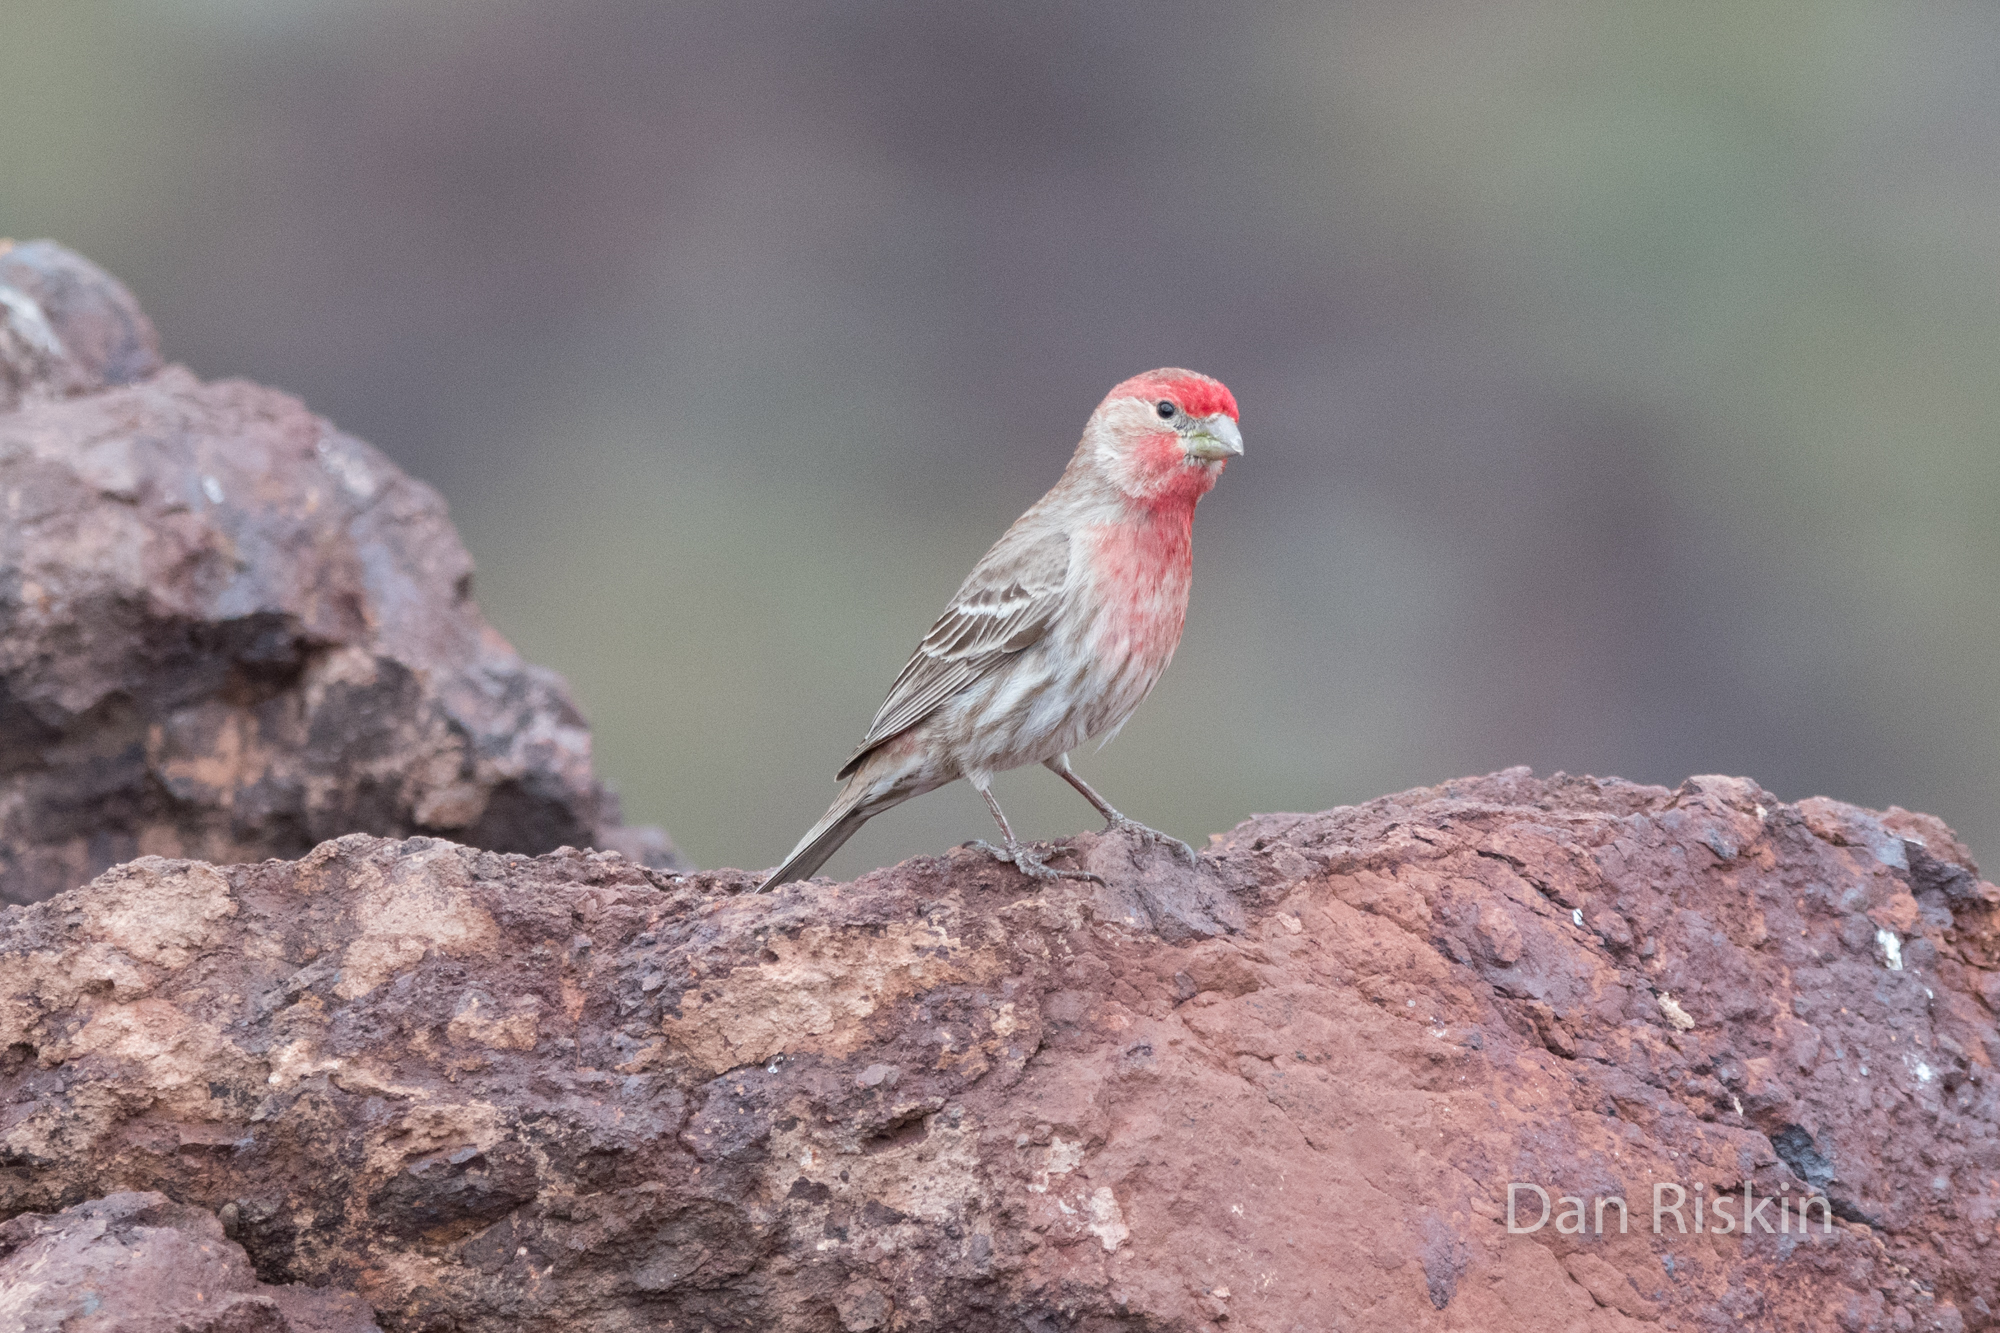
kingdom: Animalia
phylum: Chordata
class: Aves
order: Passeriformes
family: Fringillidae
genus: Haemorhous
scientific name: Haemorhous mexicanus
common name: House finch
